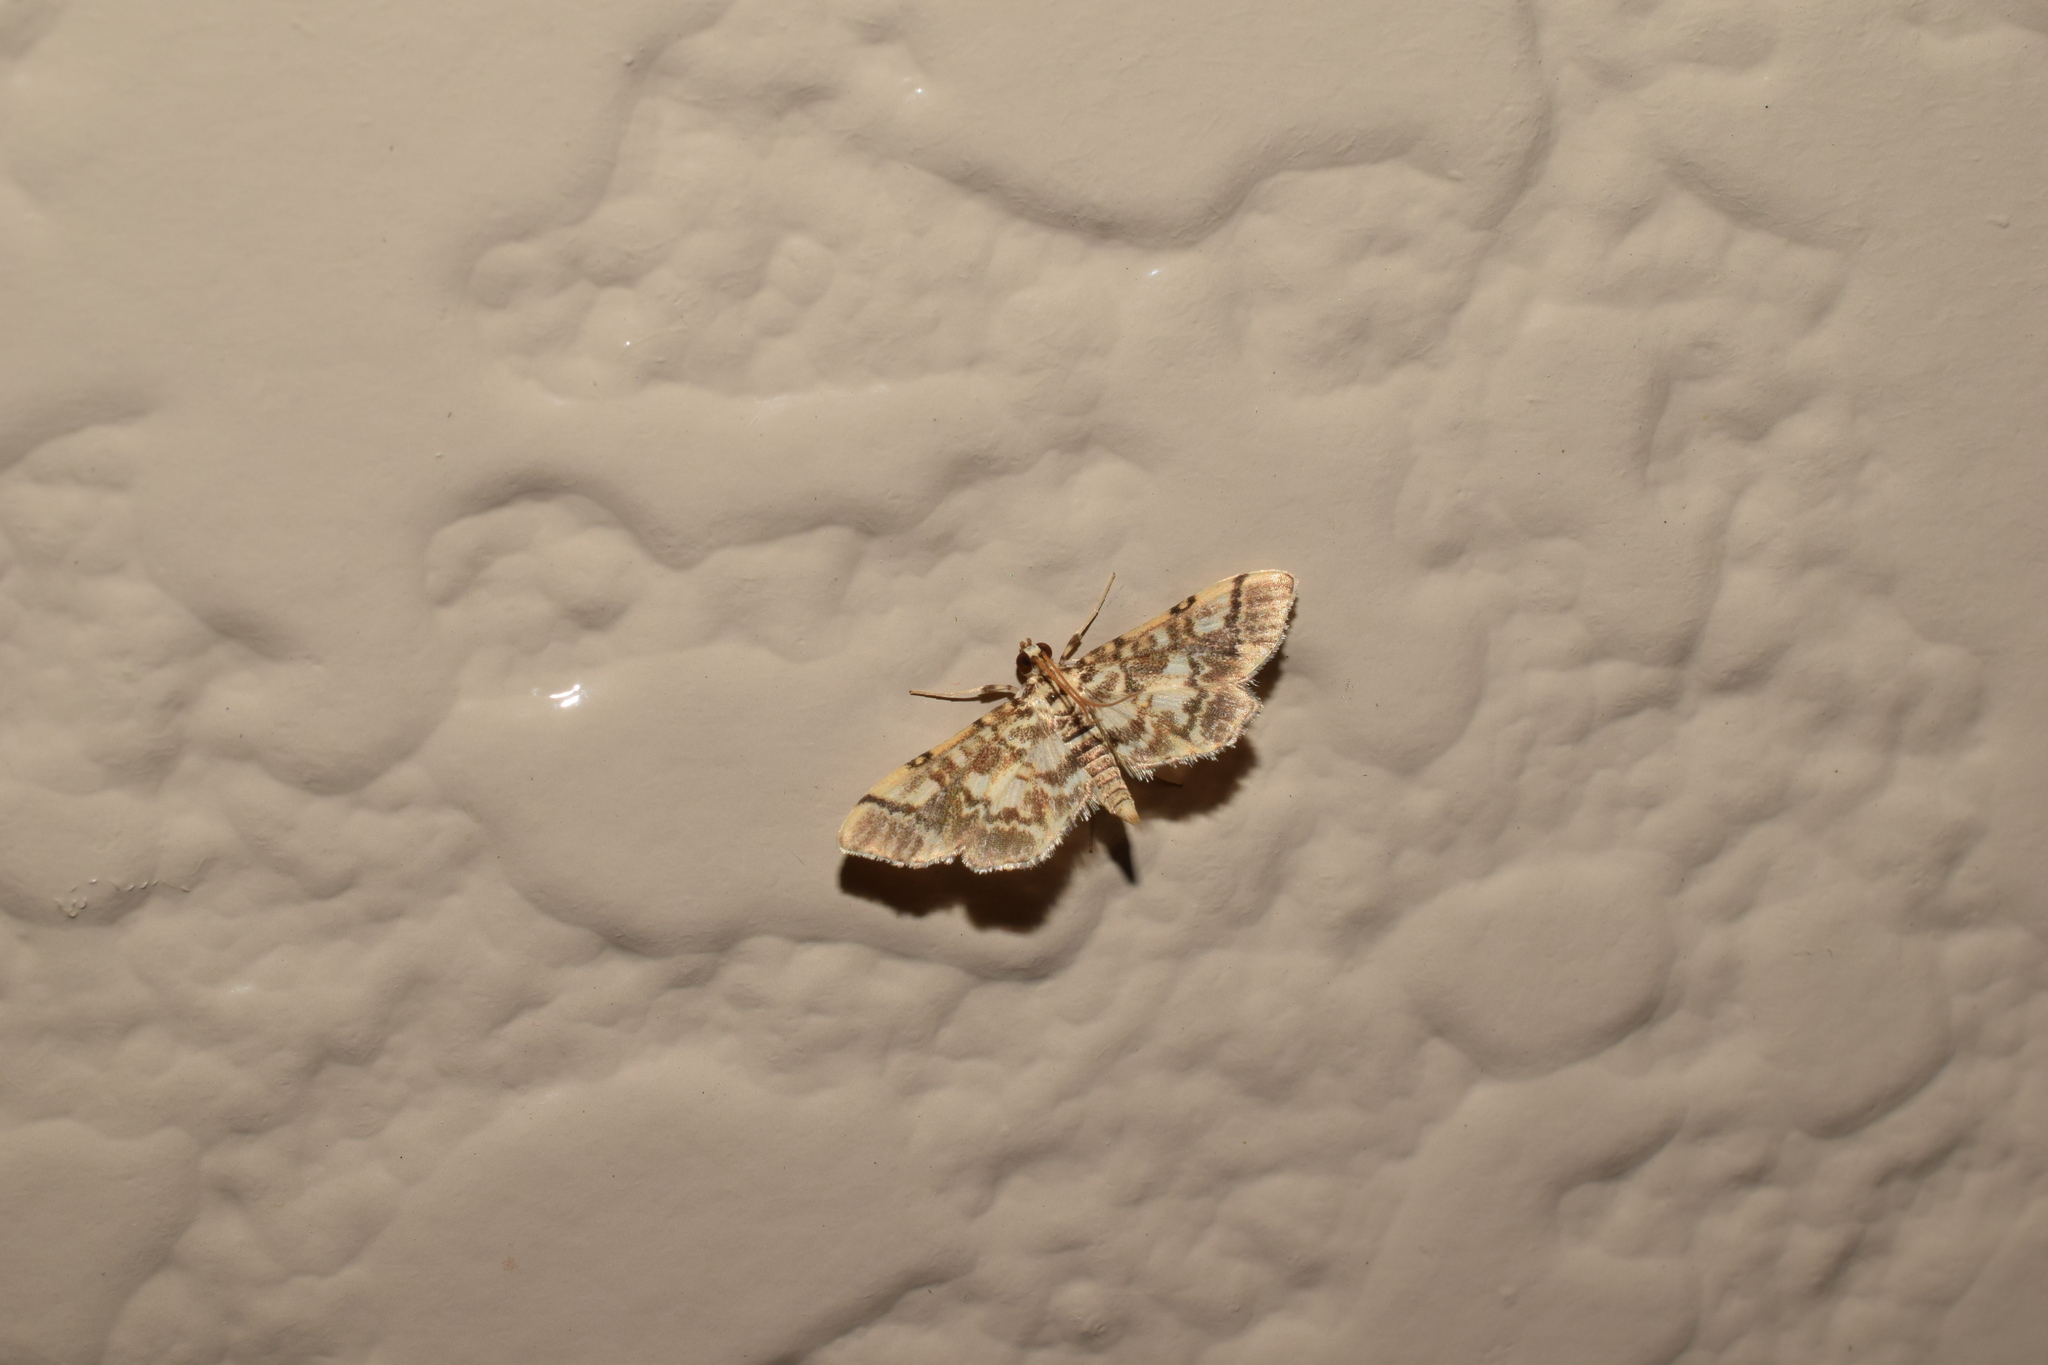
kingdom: Animalia
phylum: Arthropoda
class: Insecta
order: Lepidoptera
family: Crambidae
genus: Lamprosema
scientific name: Lamprosema commixta
